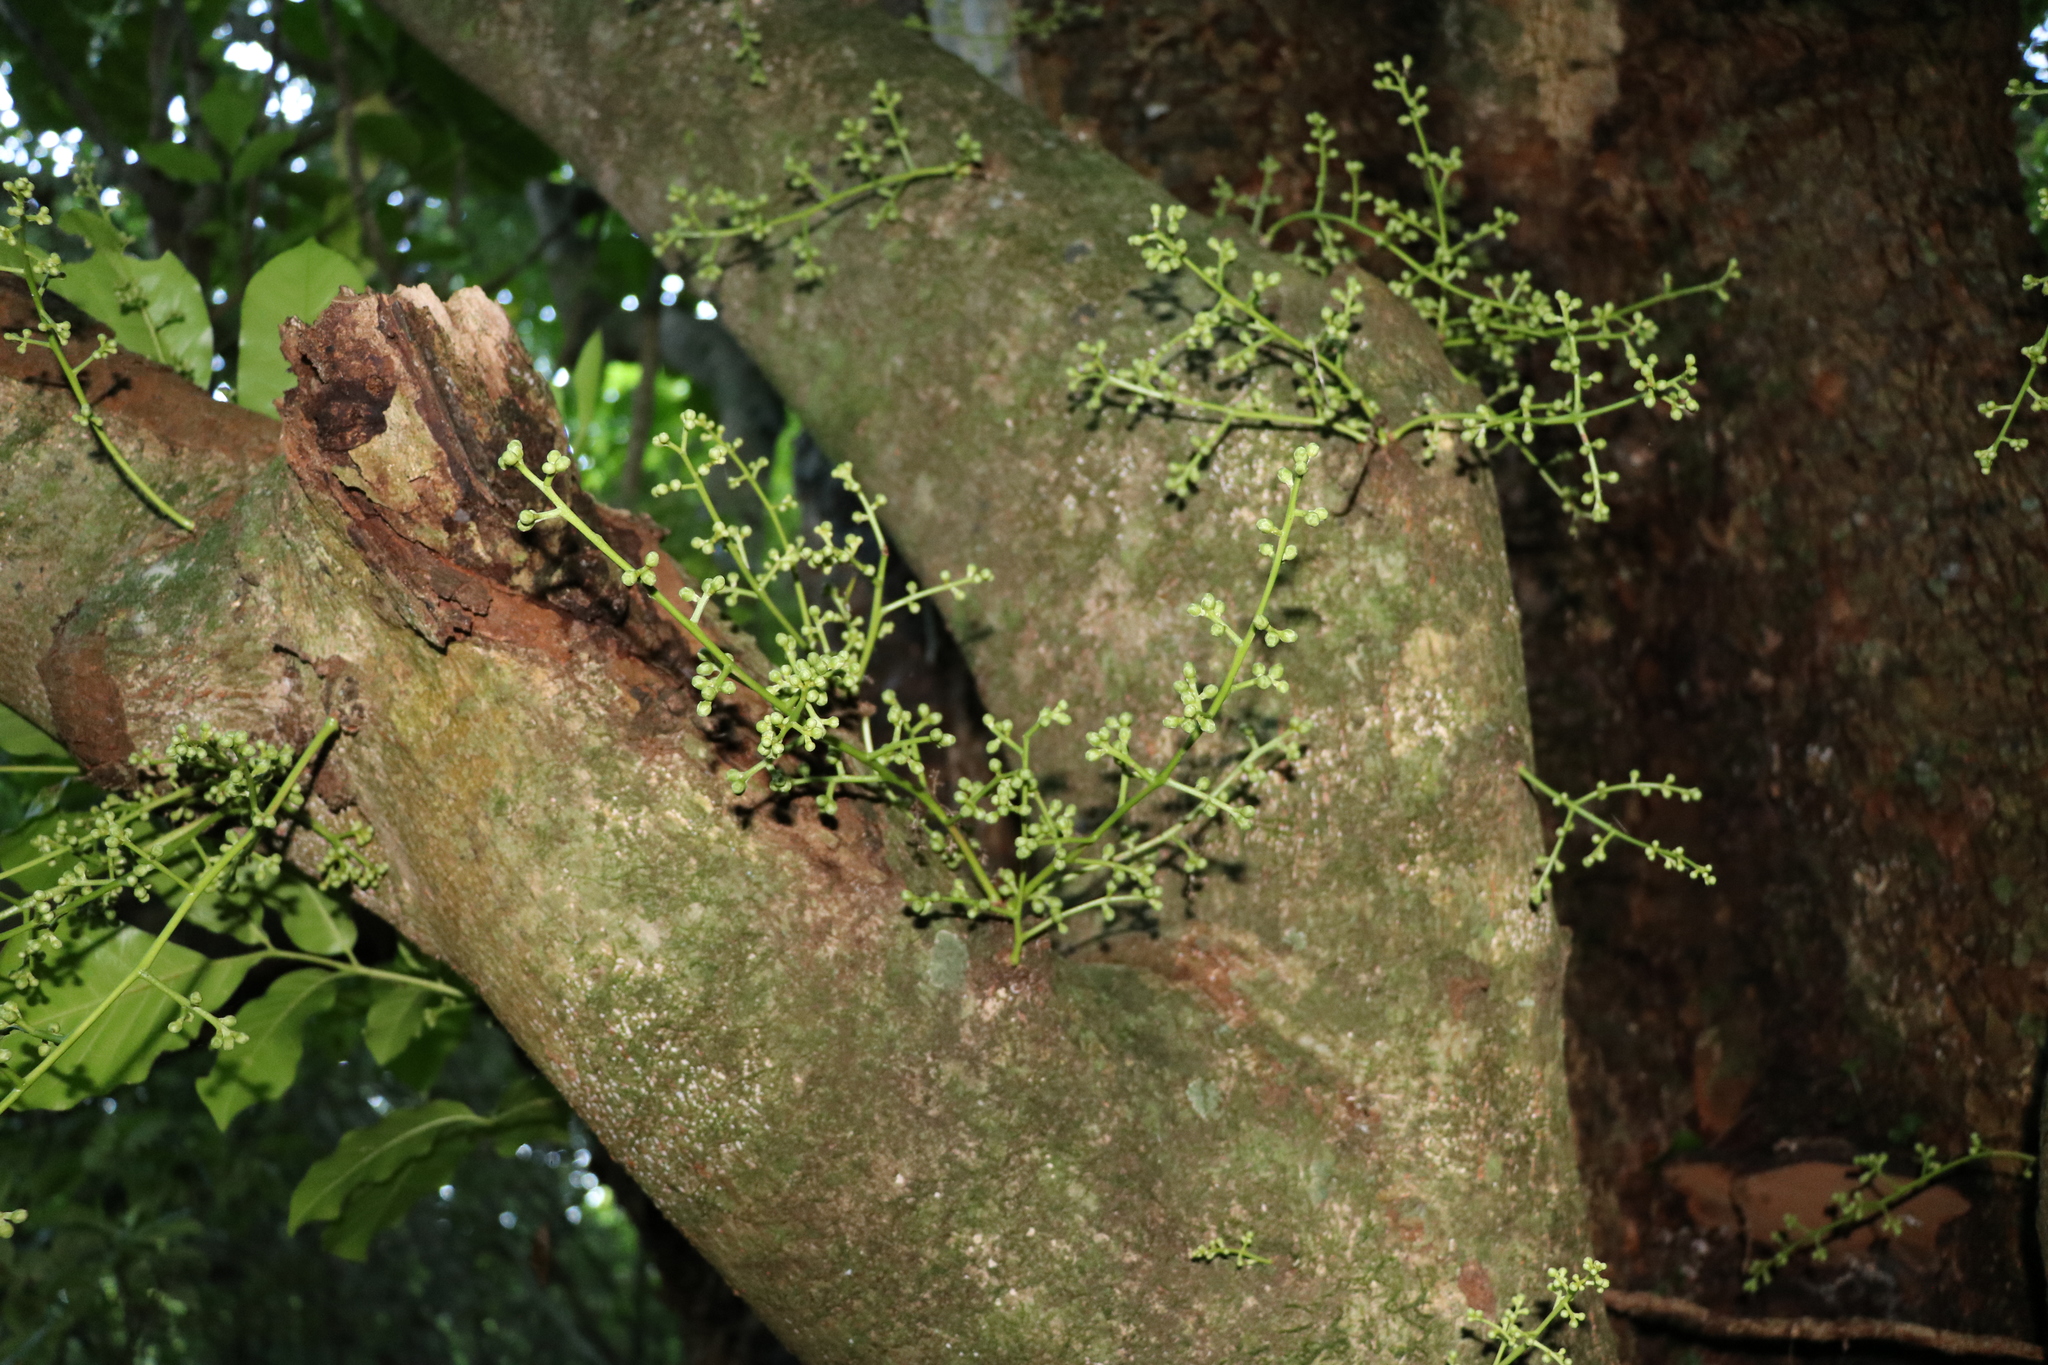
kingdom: Plantae
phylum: Tracheophyta
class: Magnoliopsida
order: Sapindales
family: Meliaceae
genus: Didymocheton
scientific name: Didymocheton spectabilis
